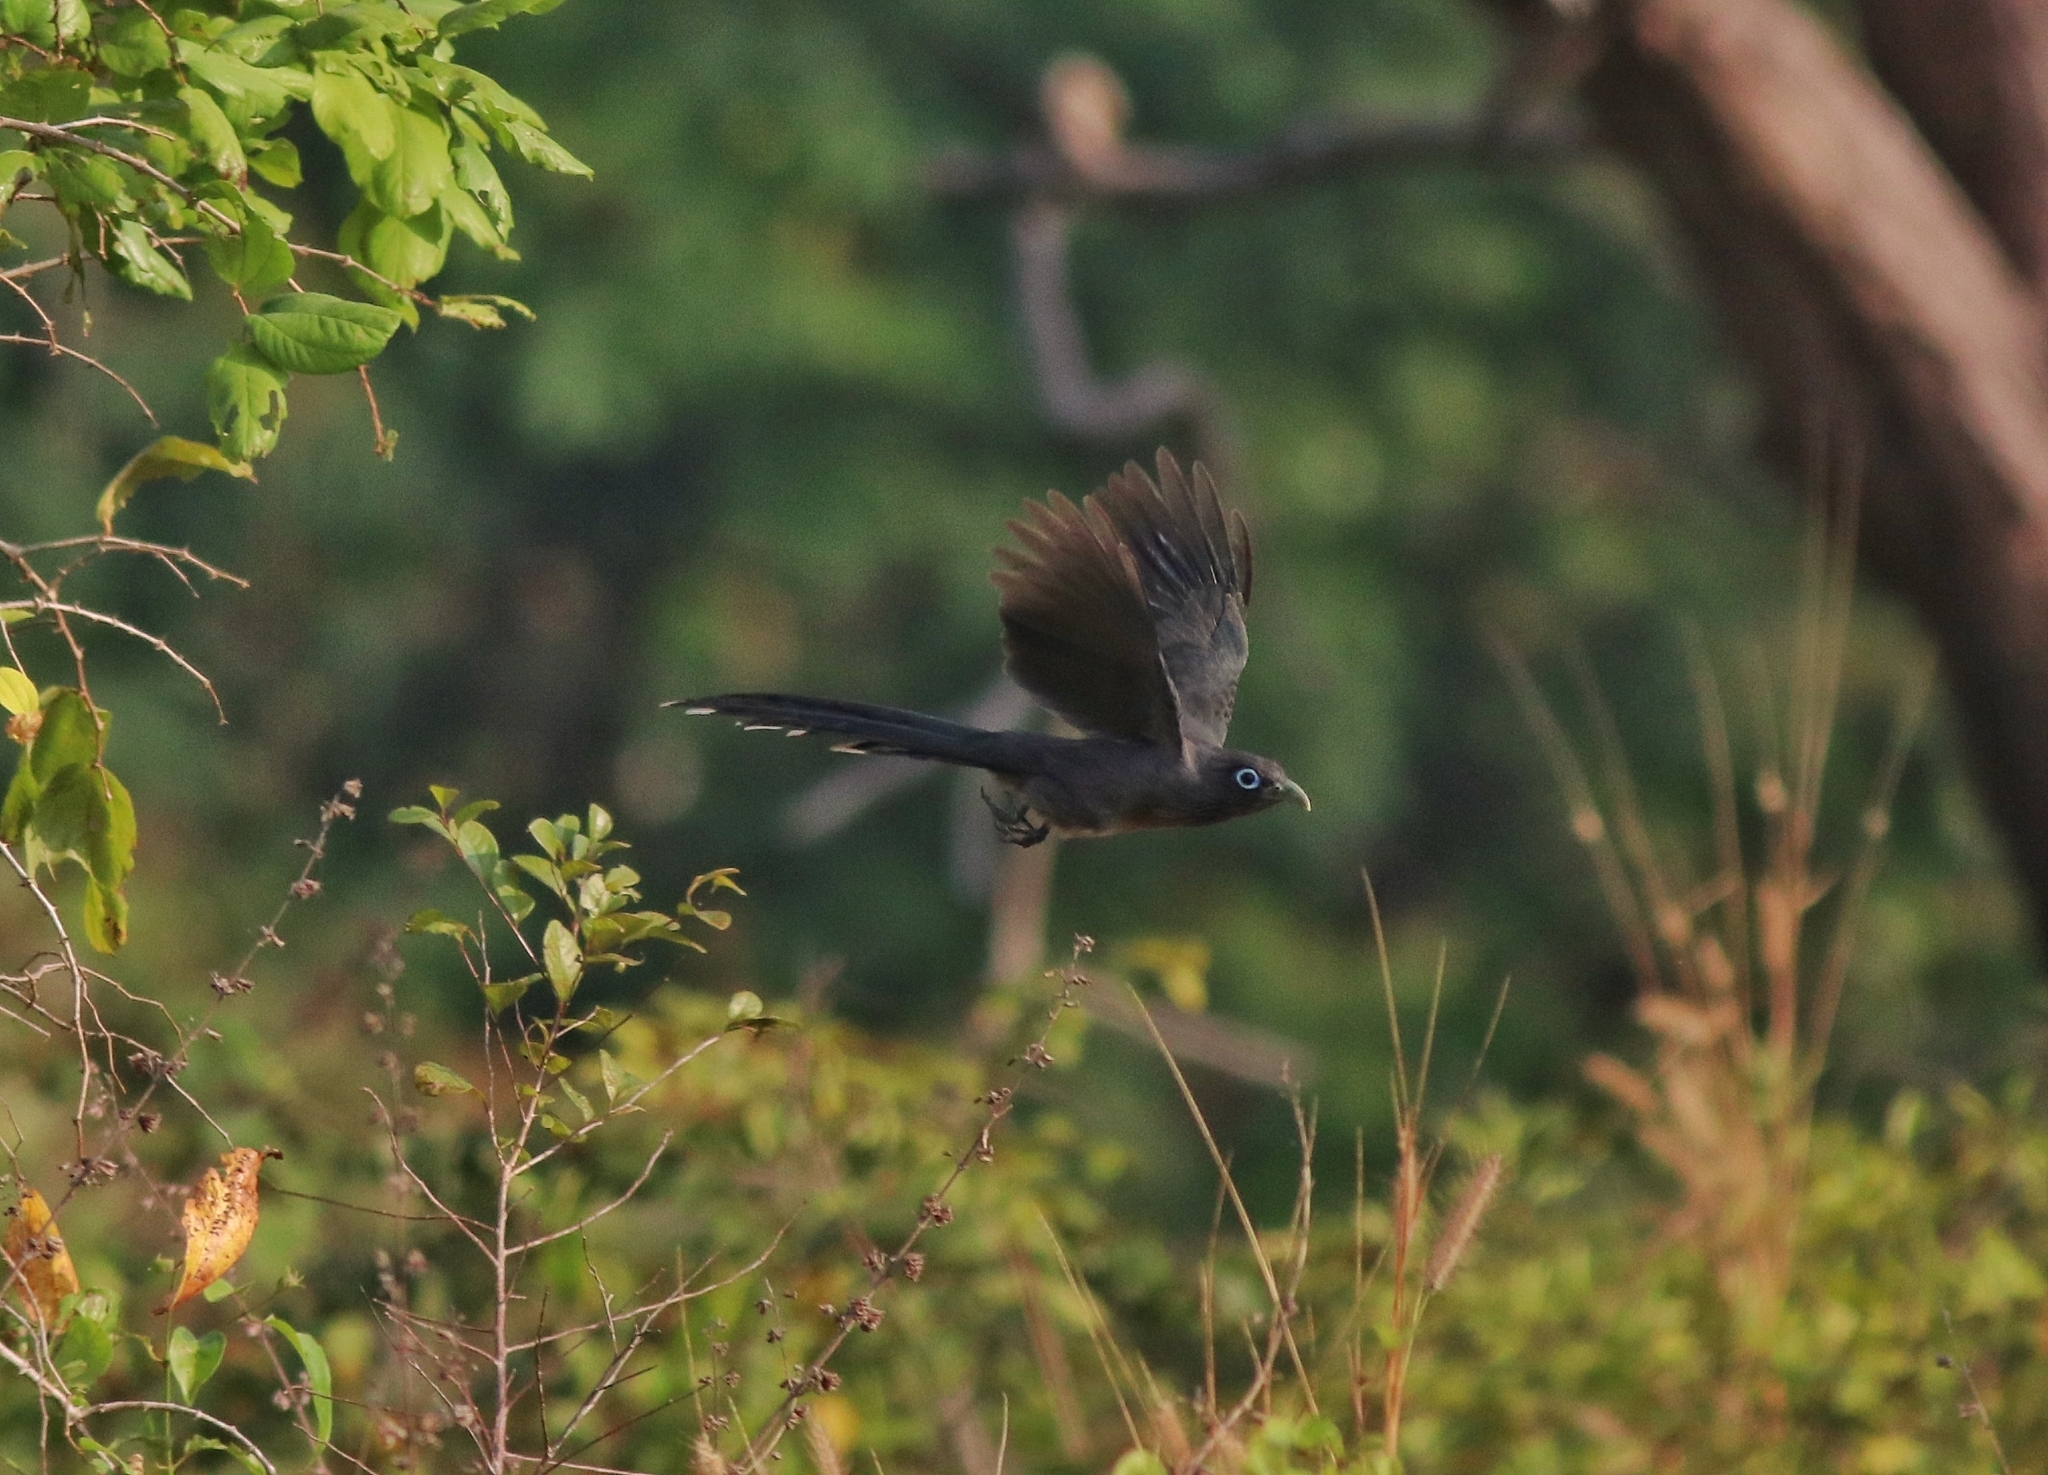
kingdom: Animalia
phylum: Chordata
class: Aves
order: Cuculiformes
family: Cuculidae
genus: Rhopodytes
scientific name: Rhopodytes viridirostris
